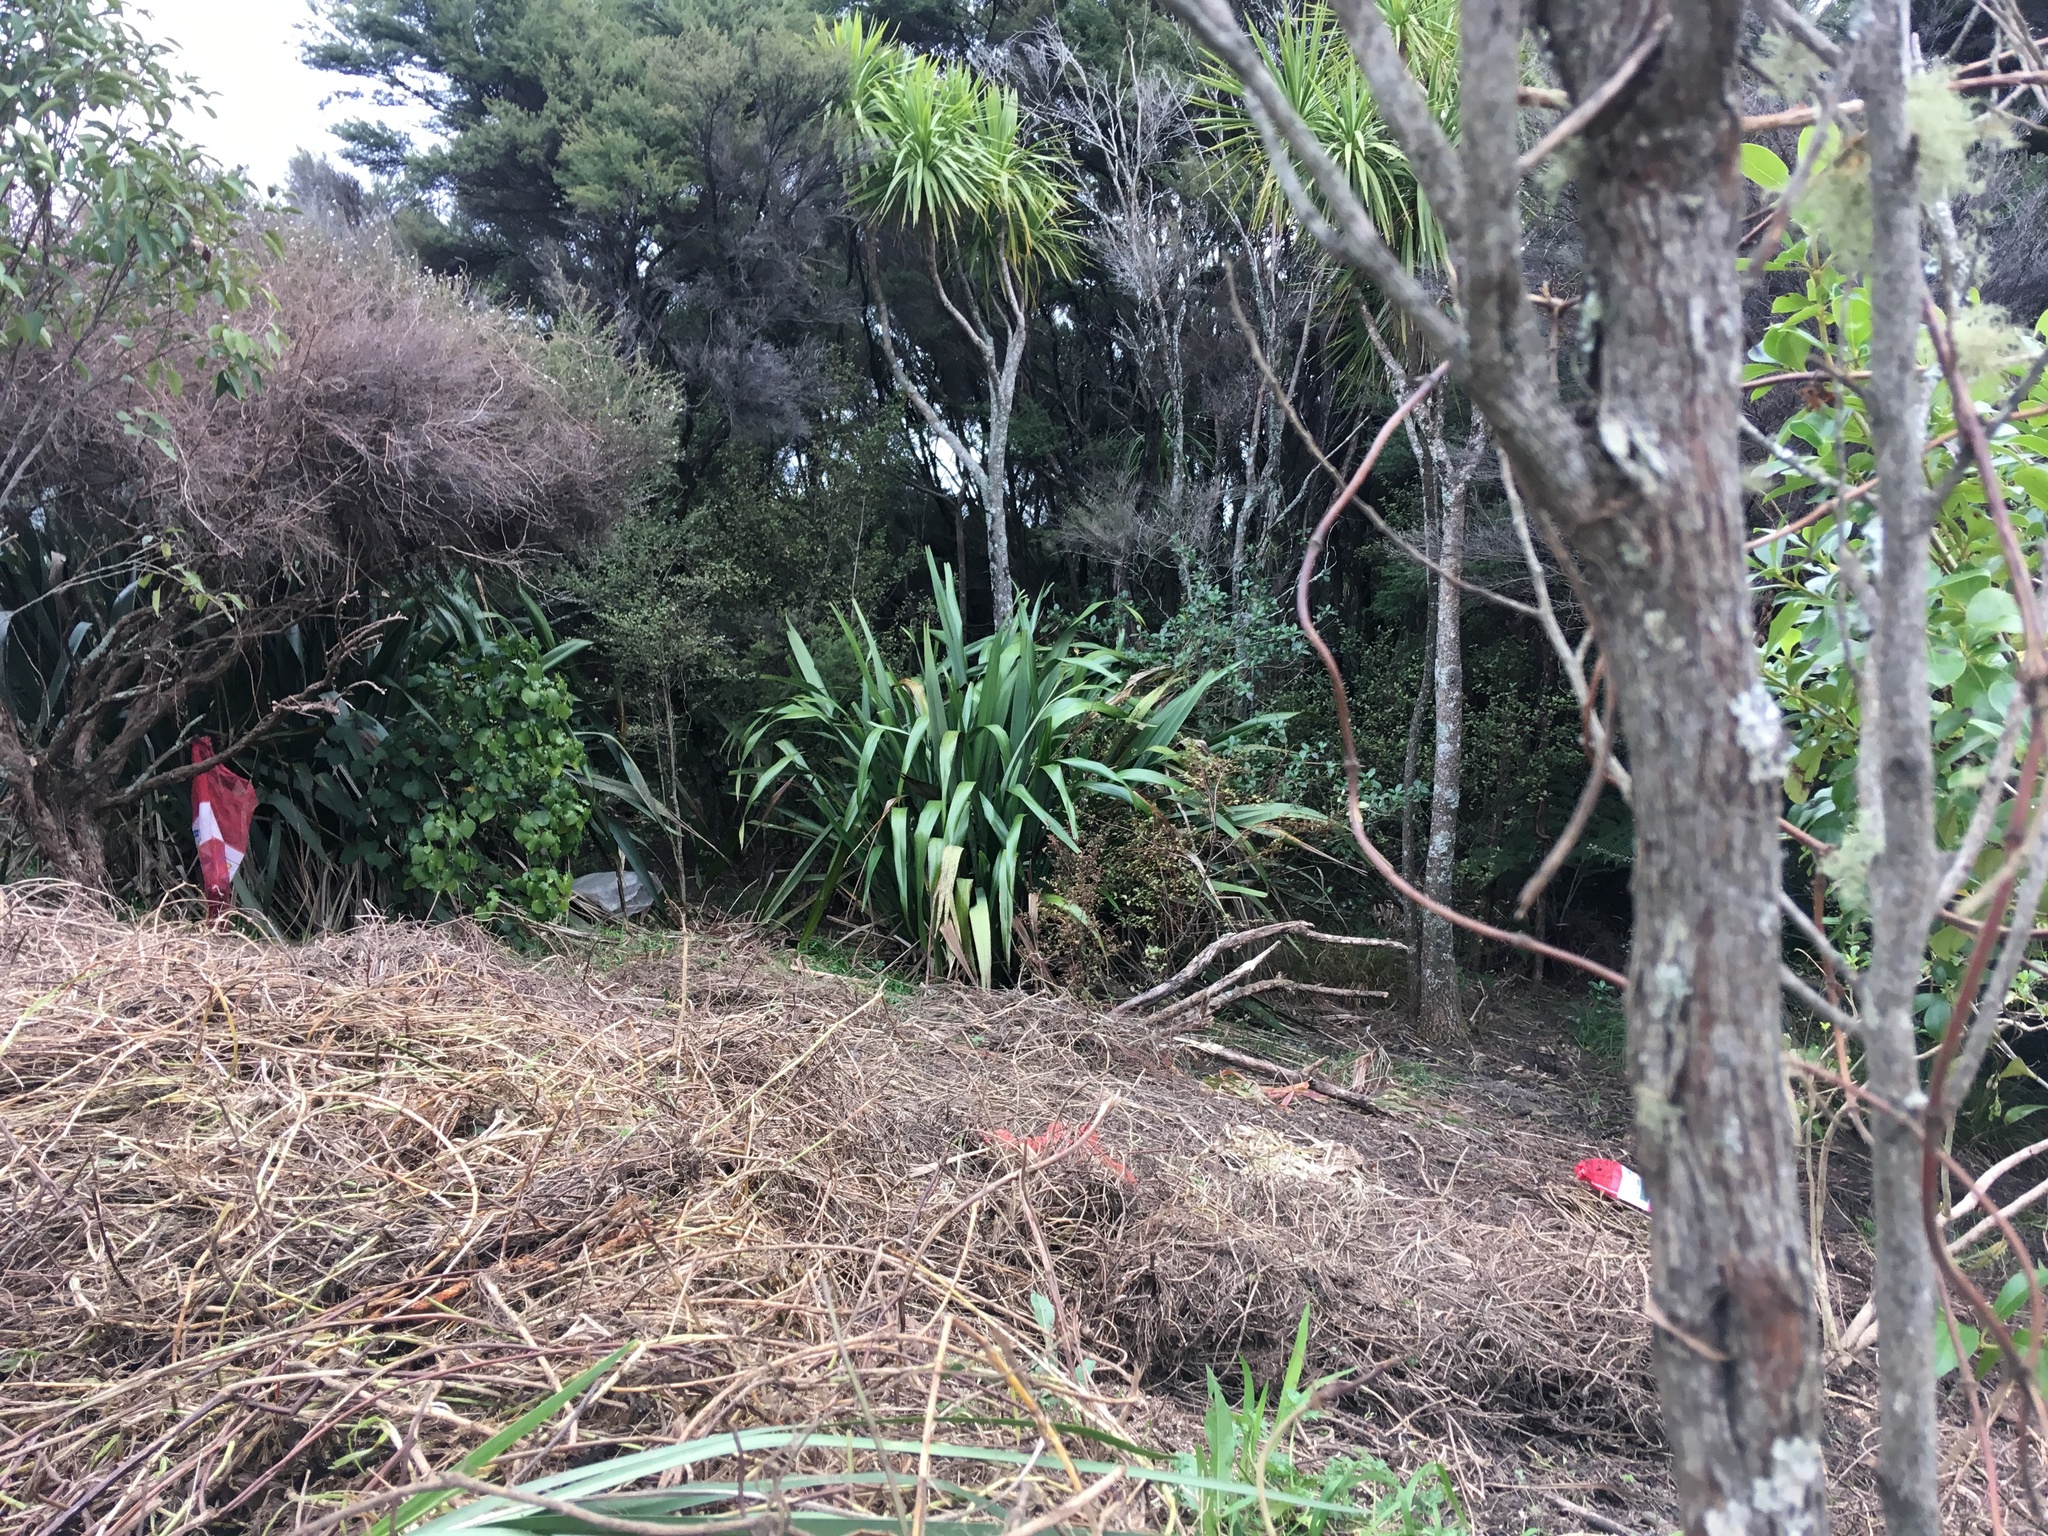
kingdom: Plantae
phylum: Tracheophyta
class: Magnoliopsida
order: Ericales
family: Primulaceae
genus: Myrsine
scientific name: Myrsine australis
